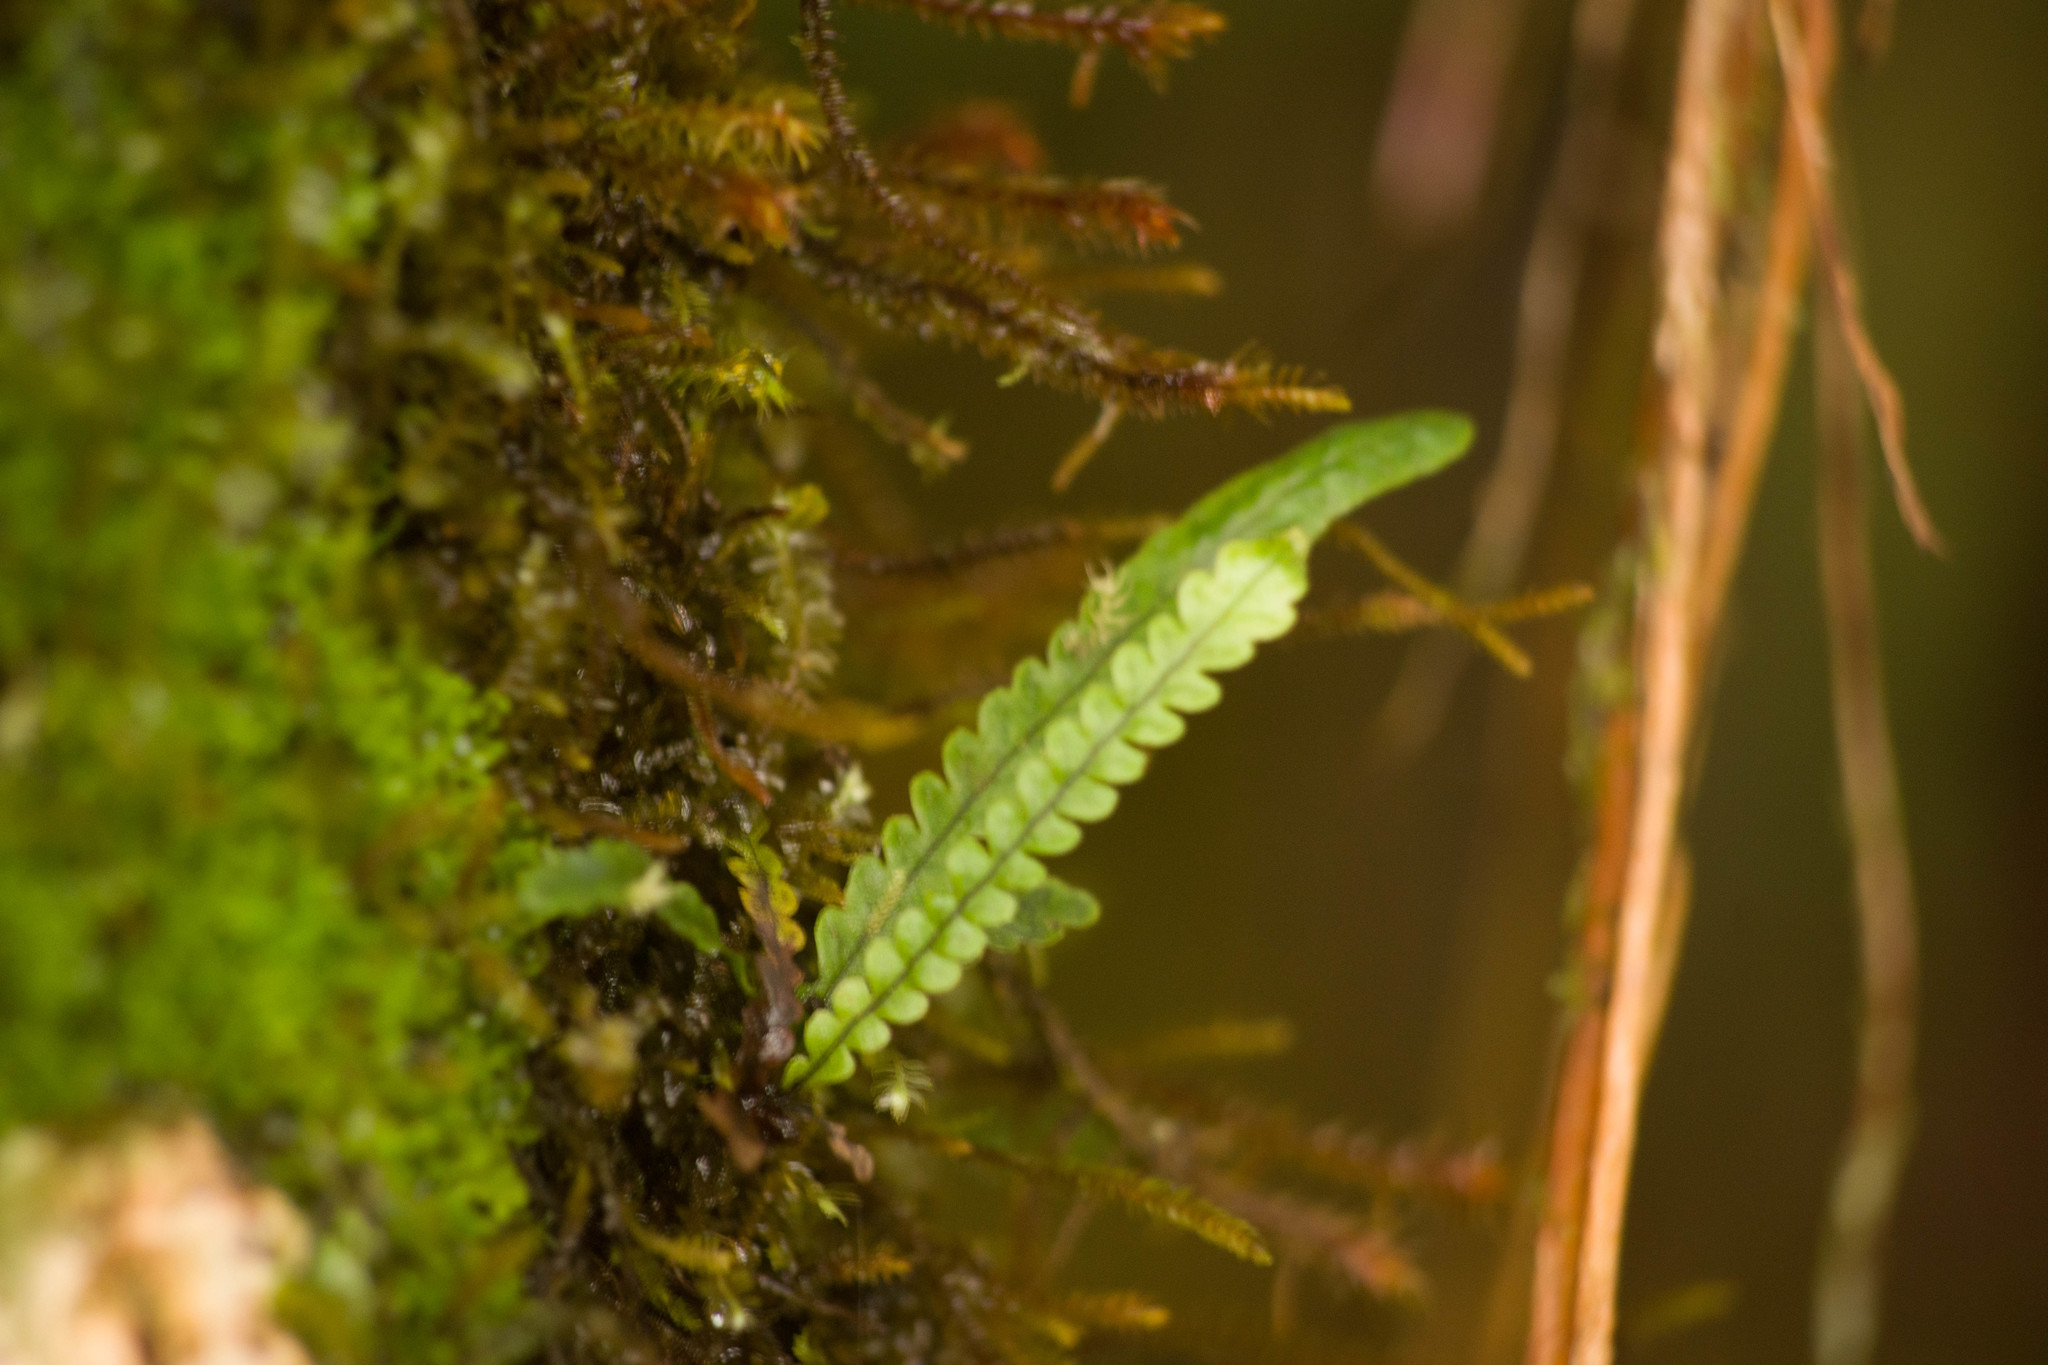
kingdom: Plantae
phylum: Tracheophyta
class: Polypodiopsida
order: Polypodiales
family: Polypodiaceae
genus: Stenogrammitis
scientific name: Stenogrammitis saffordii
